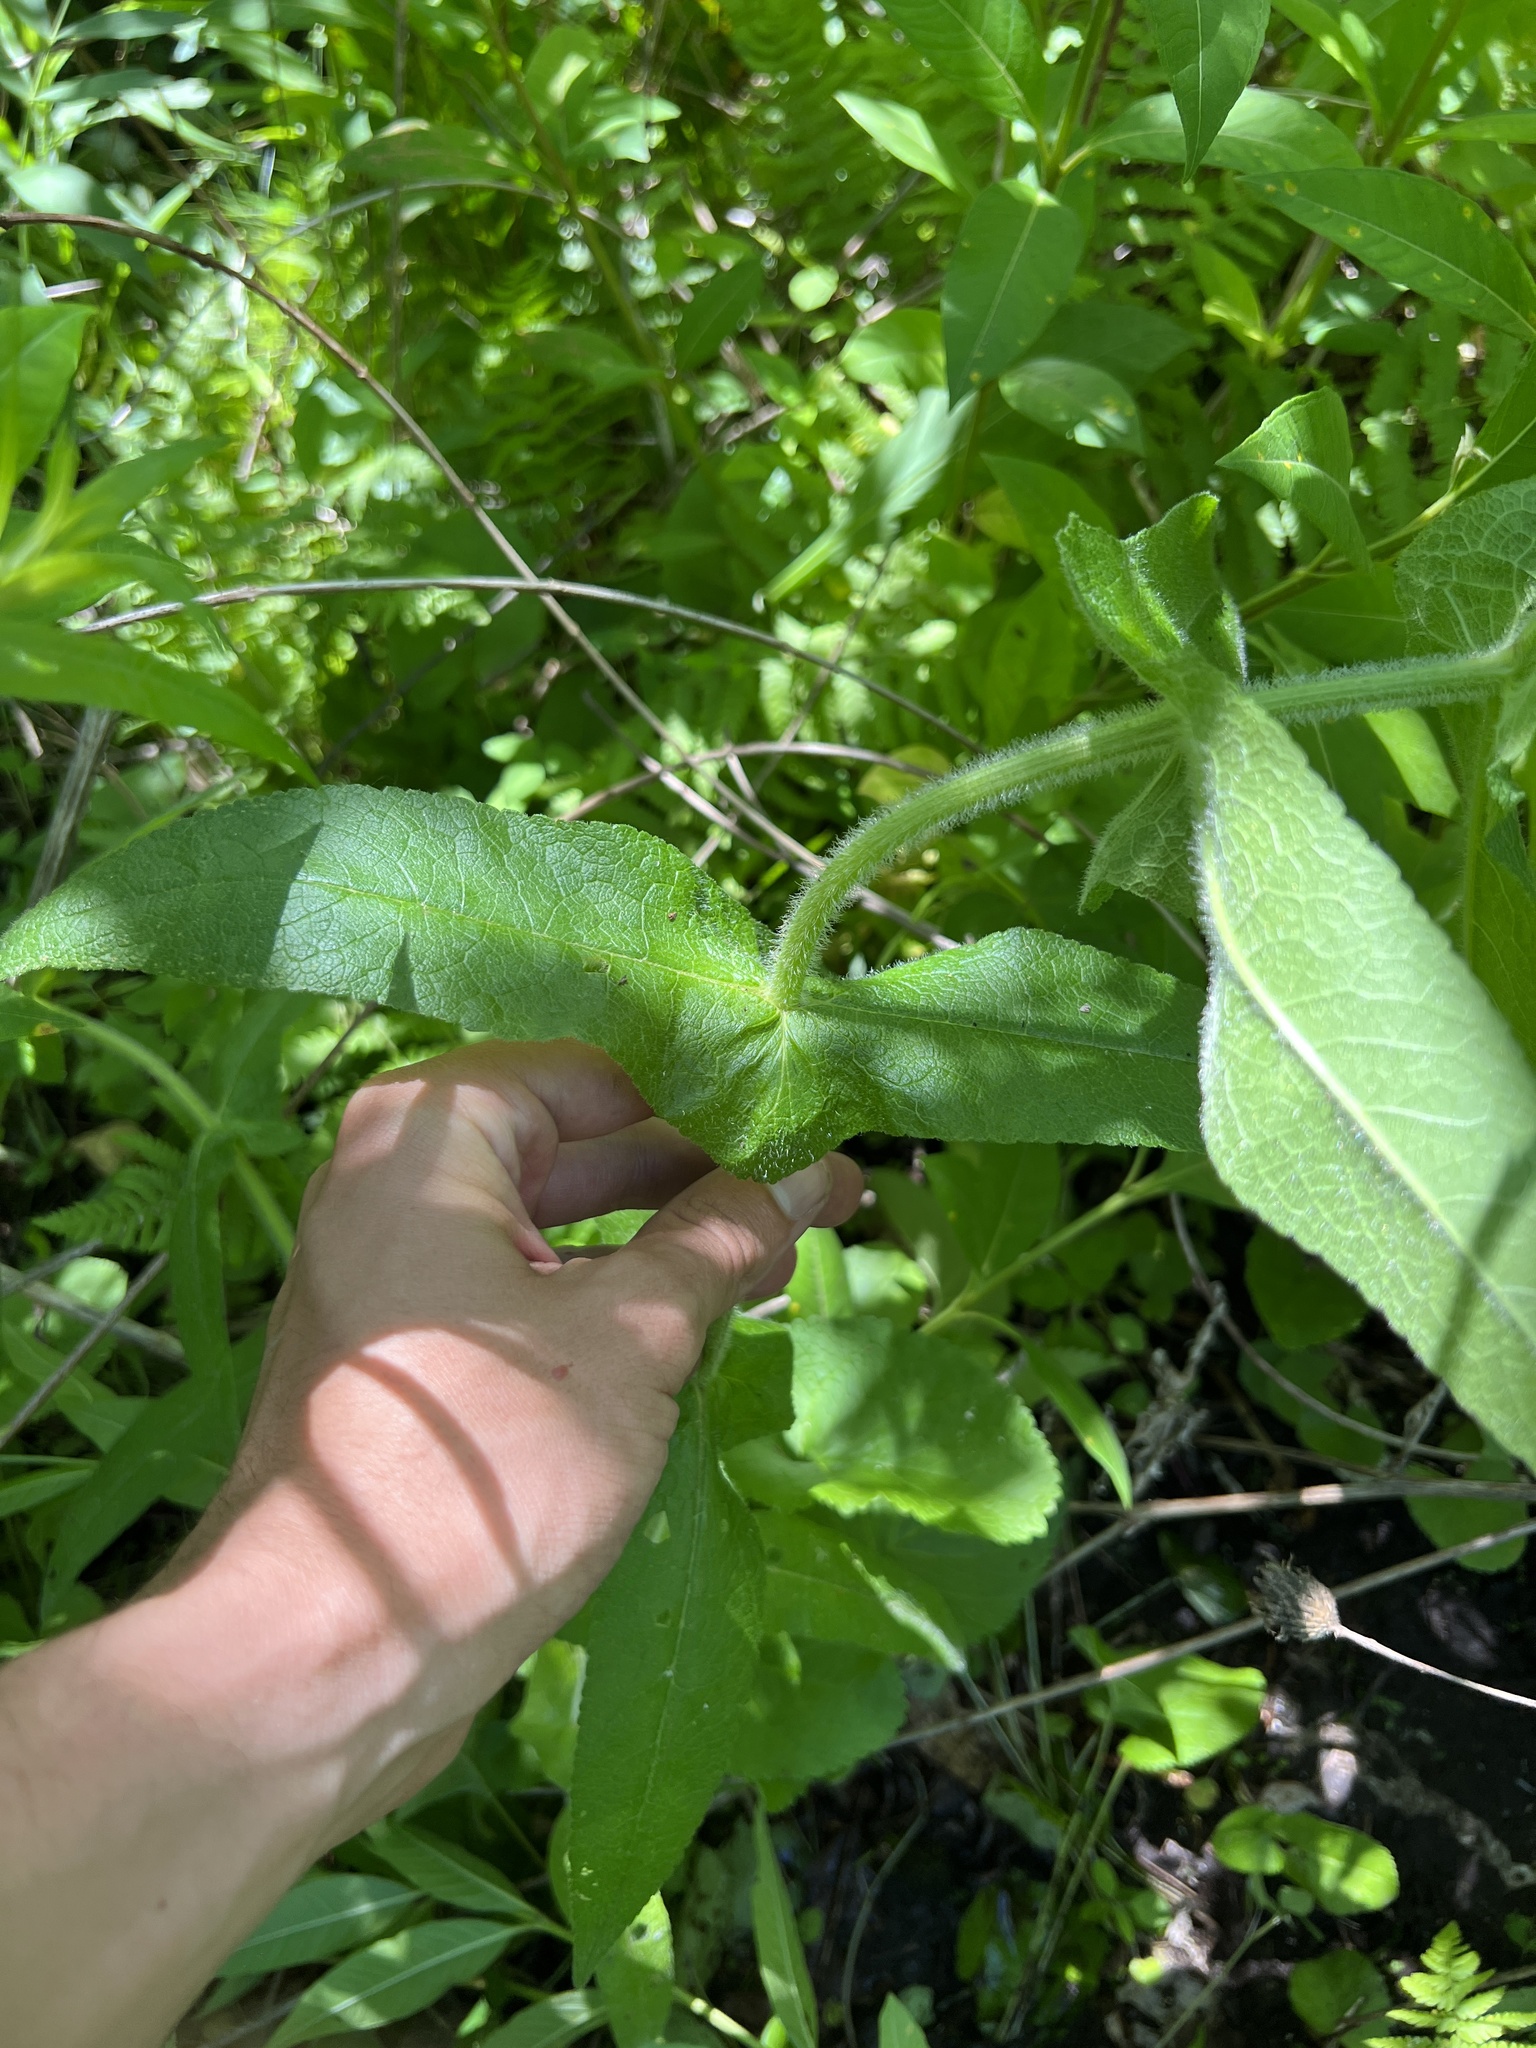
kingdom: Plantae
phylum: Tracheophyta
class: Magnoliopsida
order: Asterales
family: Asteraceae
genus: Eupatorium
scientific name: Eupatorium perfoliatum
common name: Boneset
